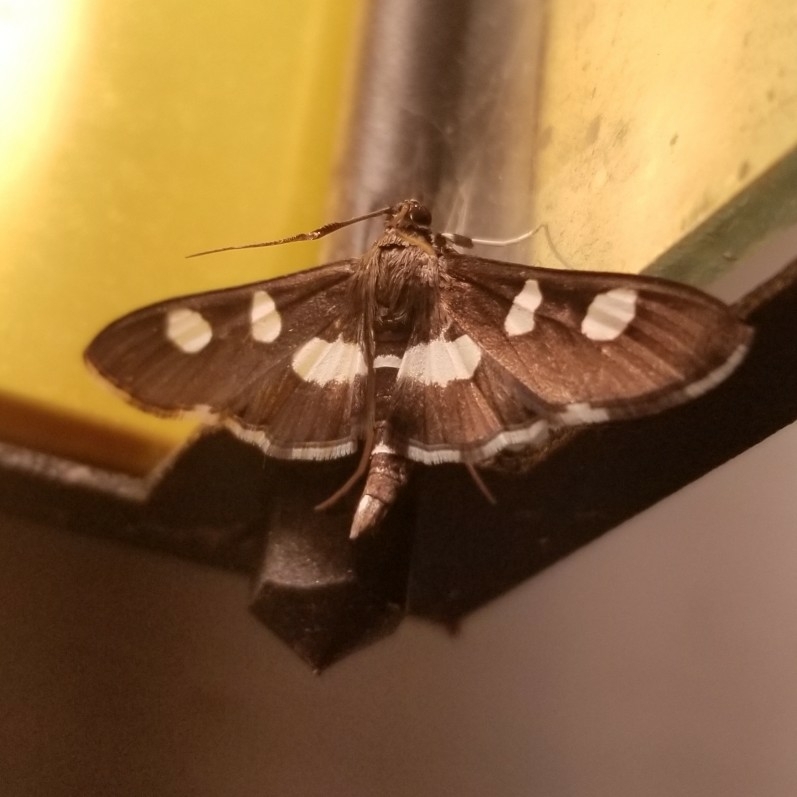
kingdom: Animalia
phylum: Arthropoda
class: Insecta
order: Lepidoptera
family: Crambidae
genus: Desmia
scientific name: Desmia
